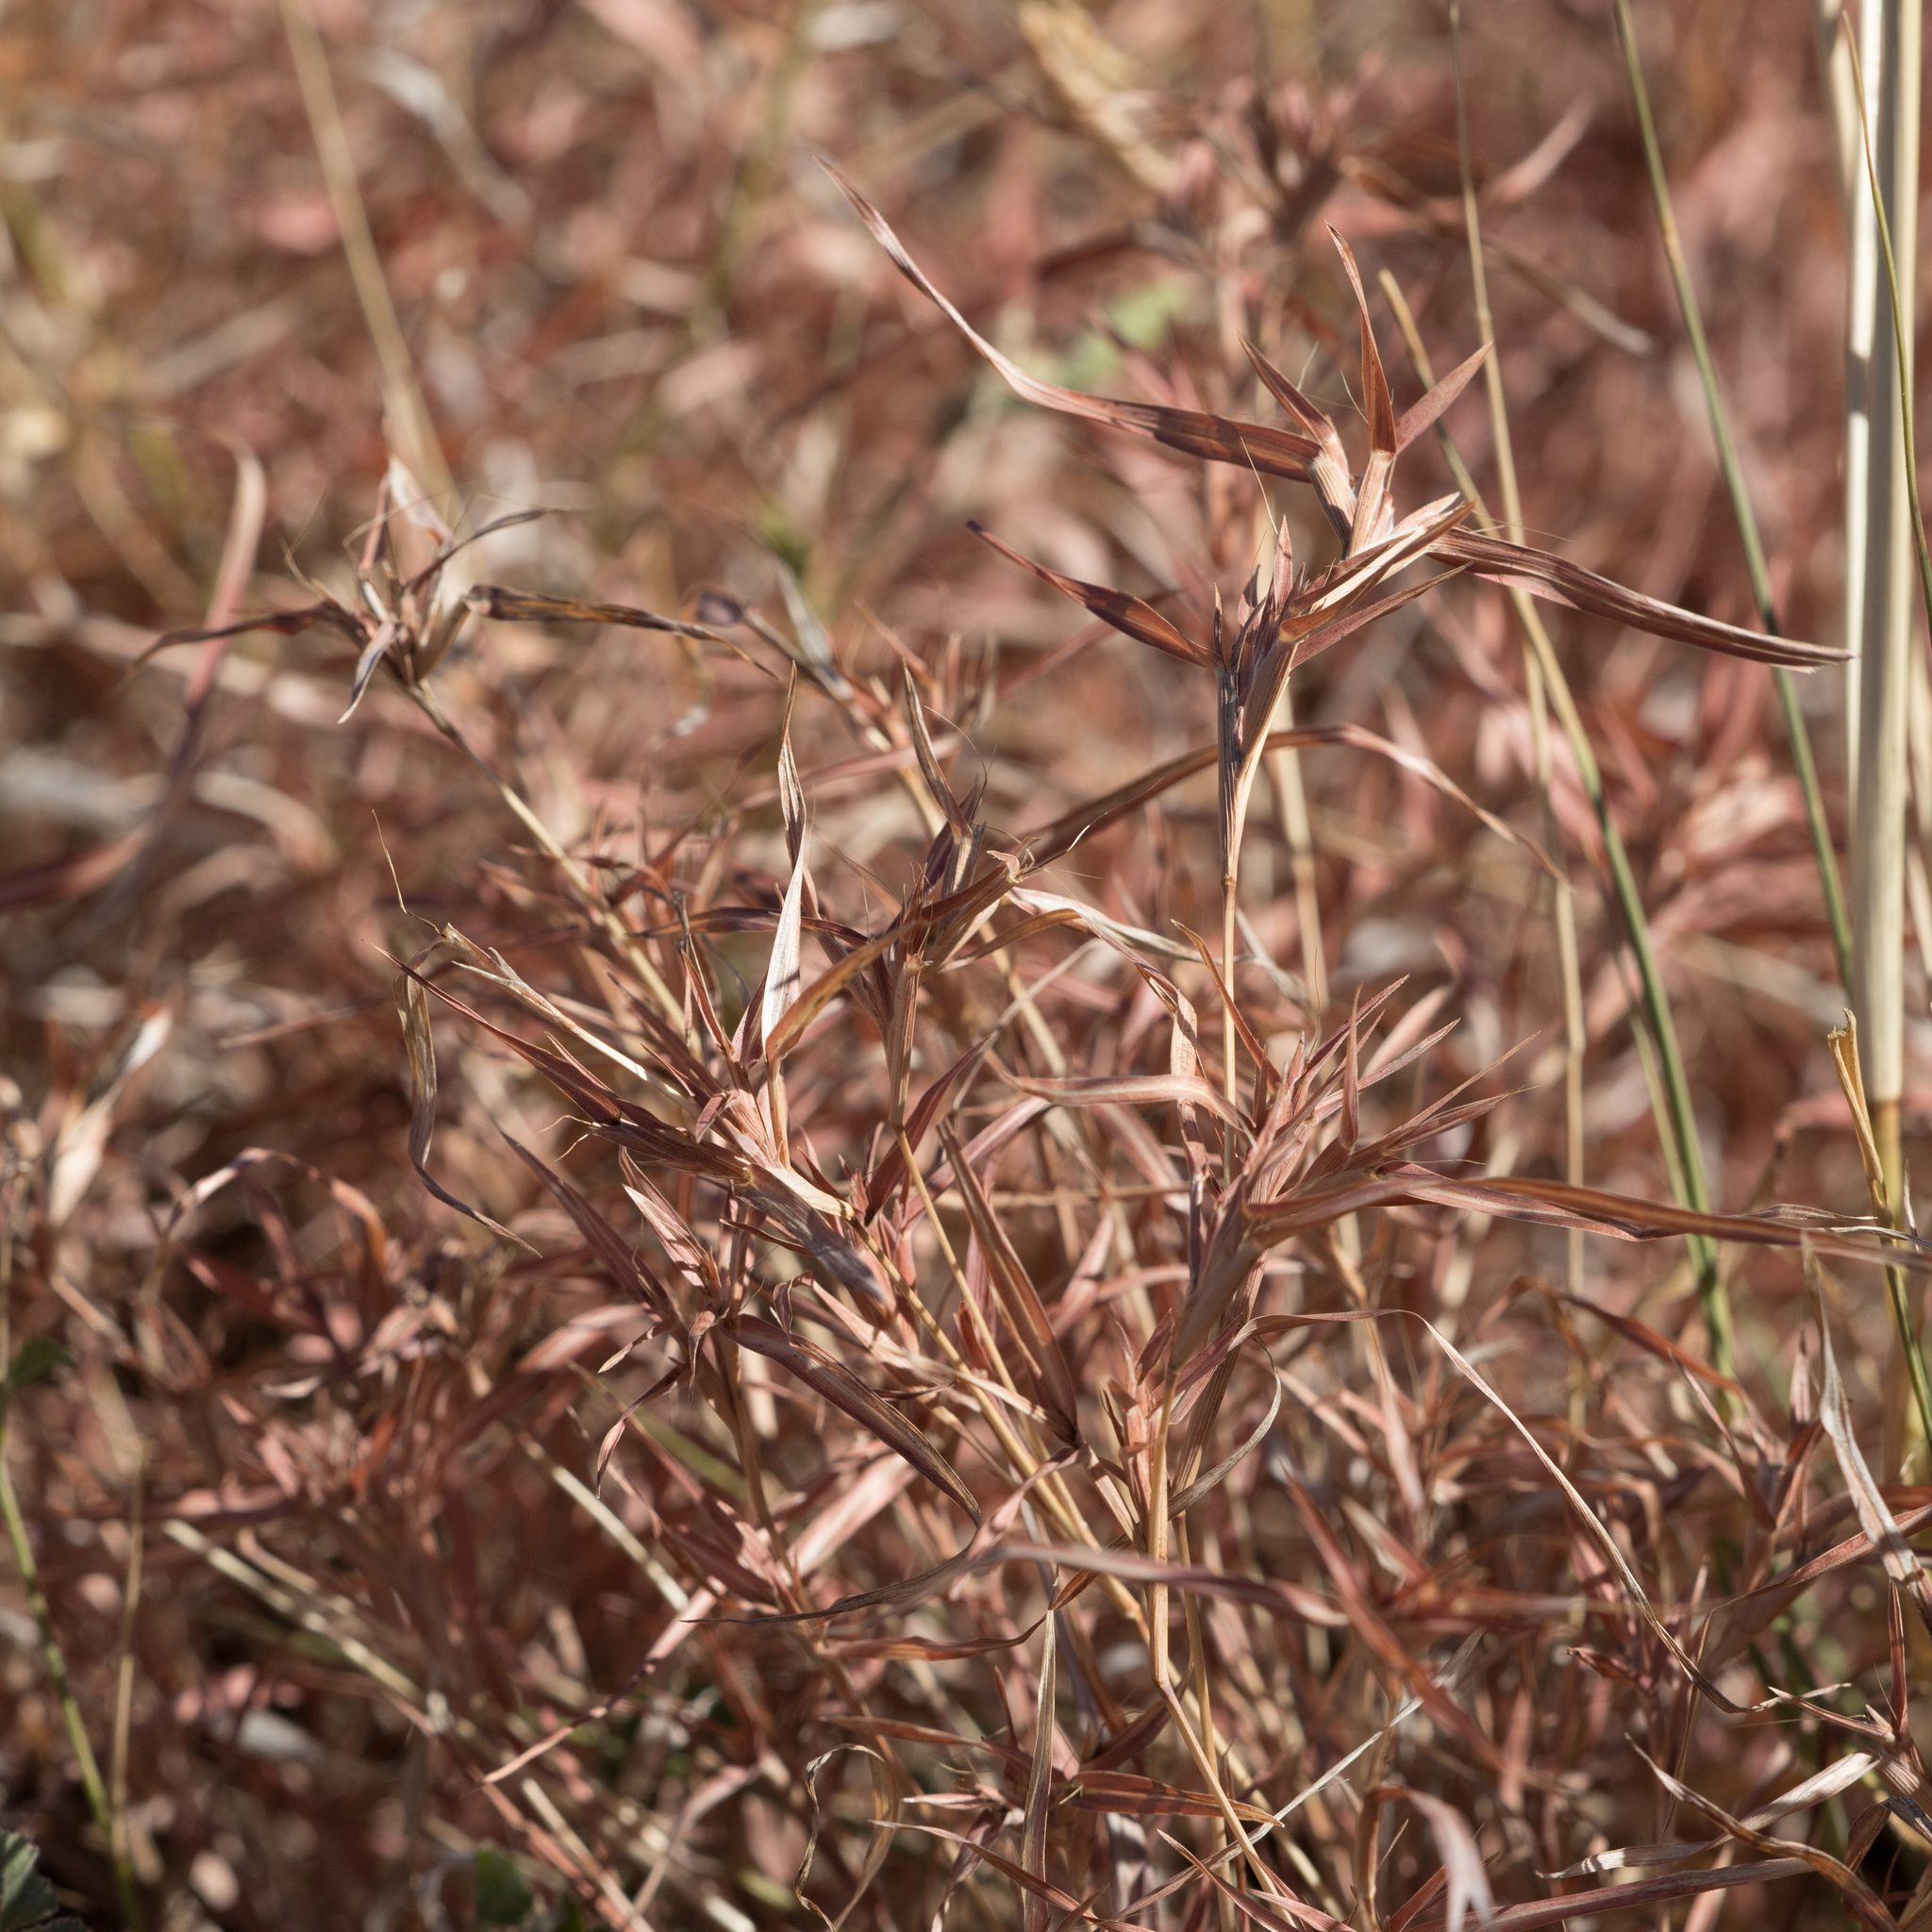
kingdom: Plantae
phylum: Tracheophyta
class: Liliopsida
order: Poales
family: Poaceae
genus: Iseilema
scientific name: Iseilema vaginiflorum
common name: Red flinders grass
